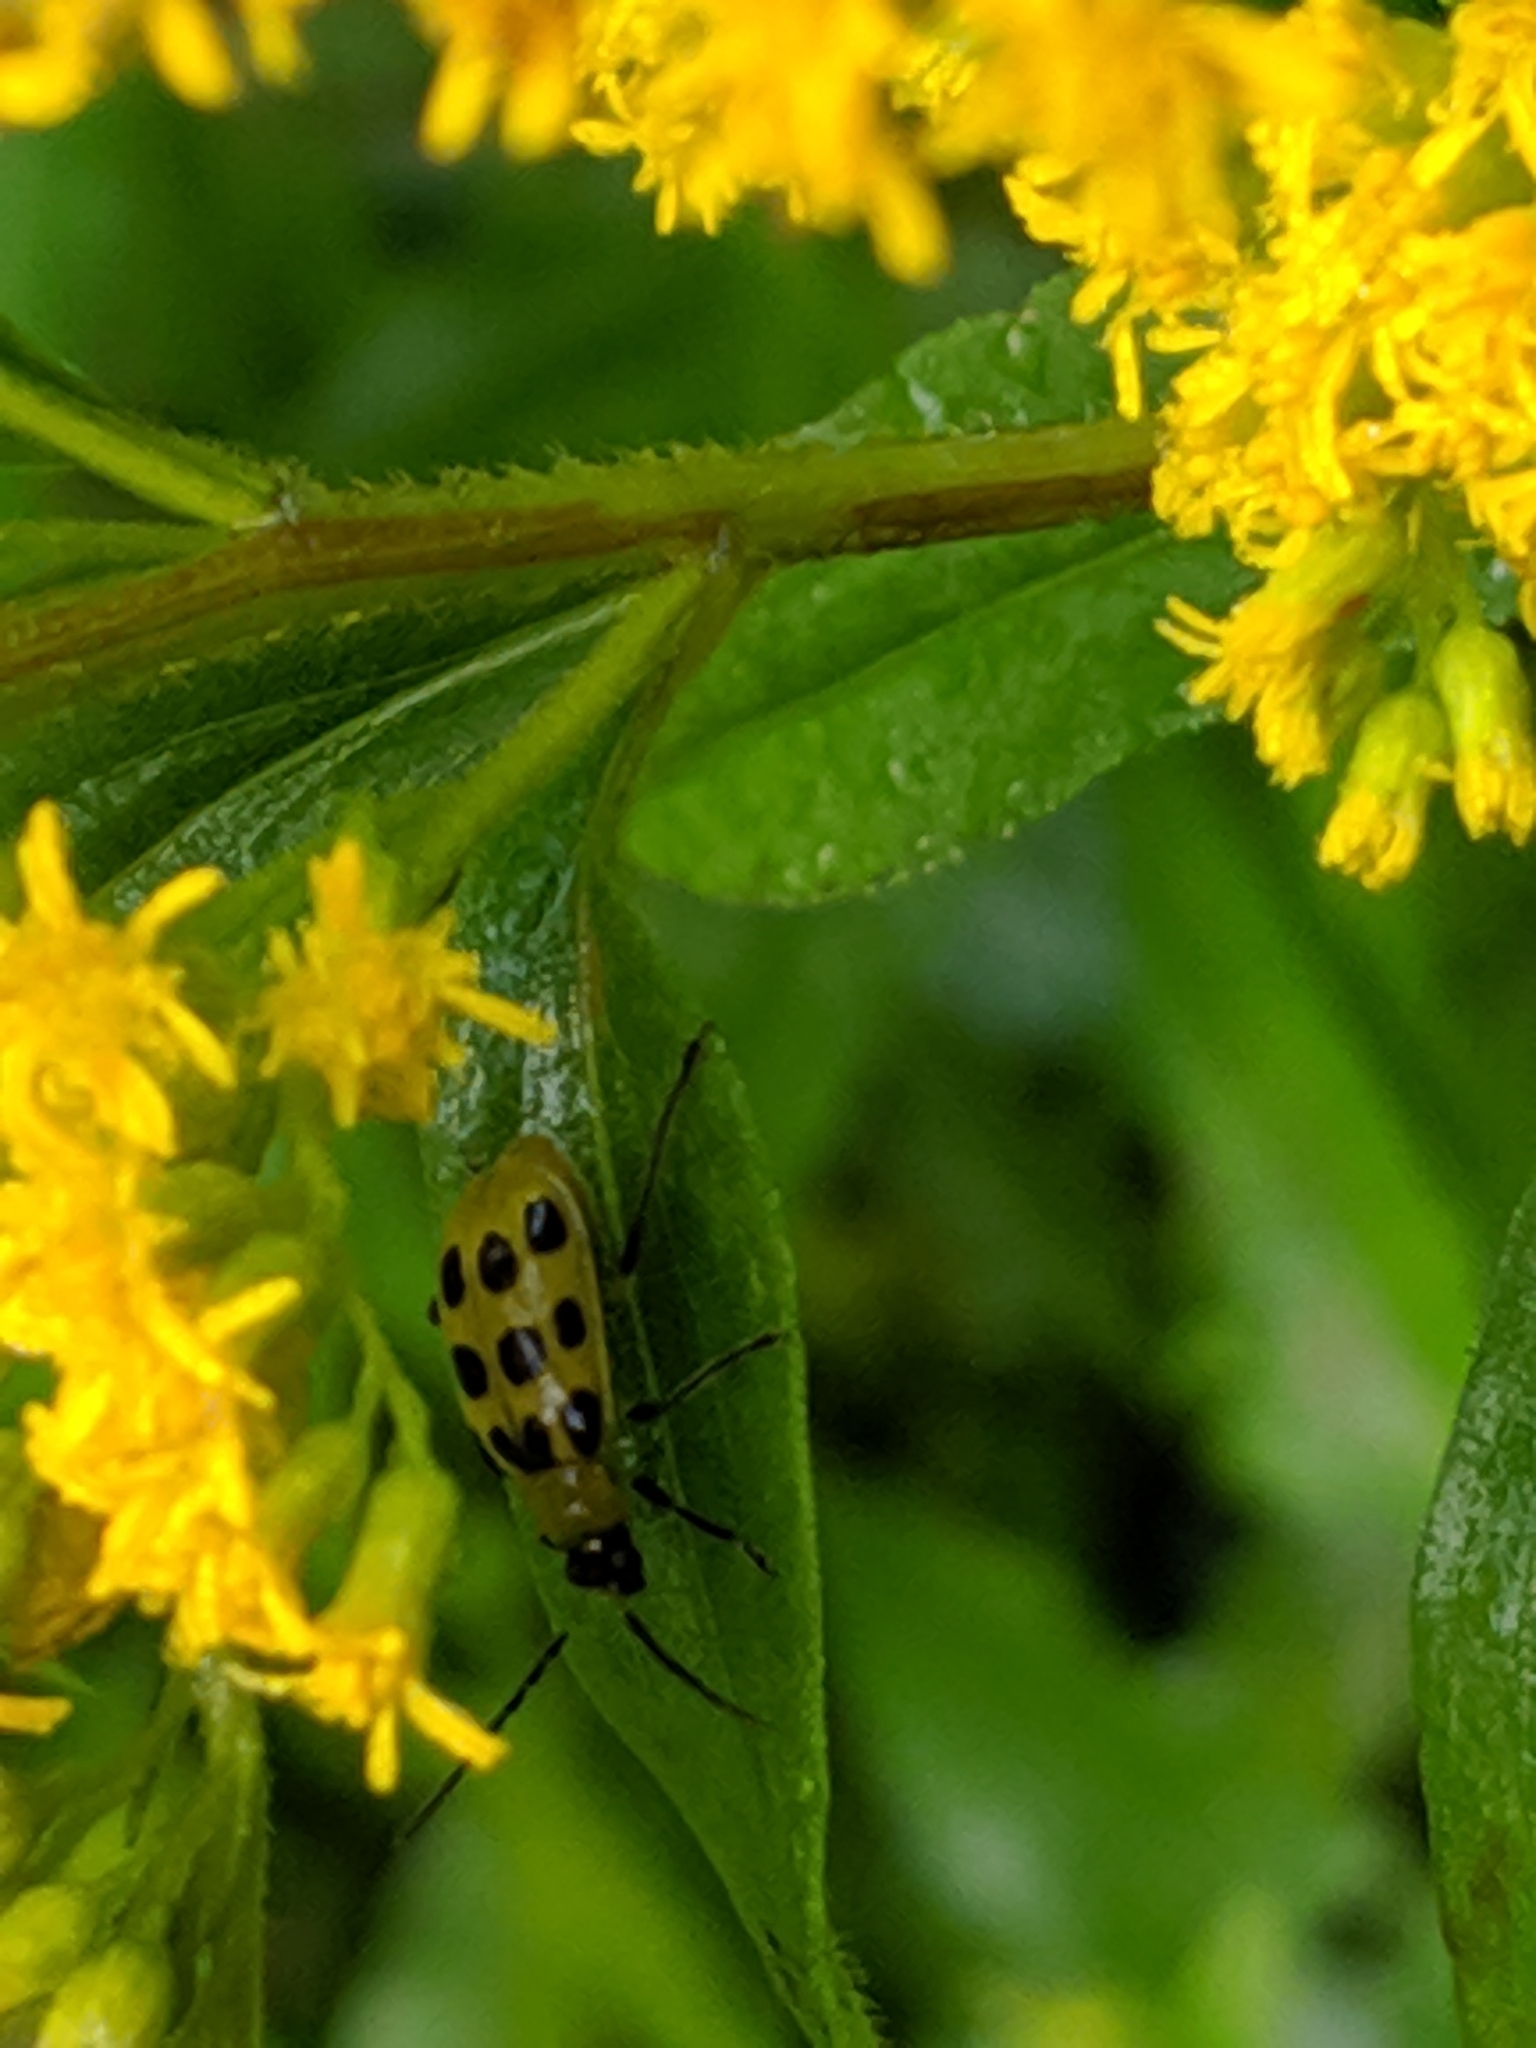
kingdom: Animalia
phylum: Arthropoda
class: Insecta
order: Coleoptera
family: Chrysomelidae
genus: Diabrotica
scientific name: Diabrotica undecimpunctata
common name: Spotted cucumber beetle
